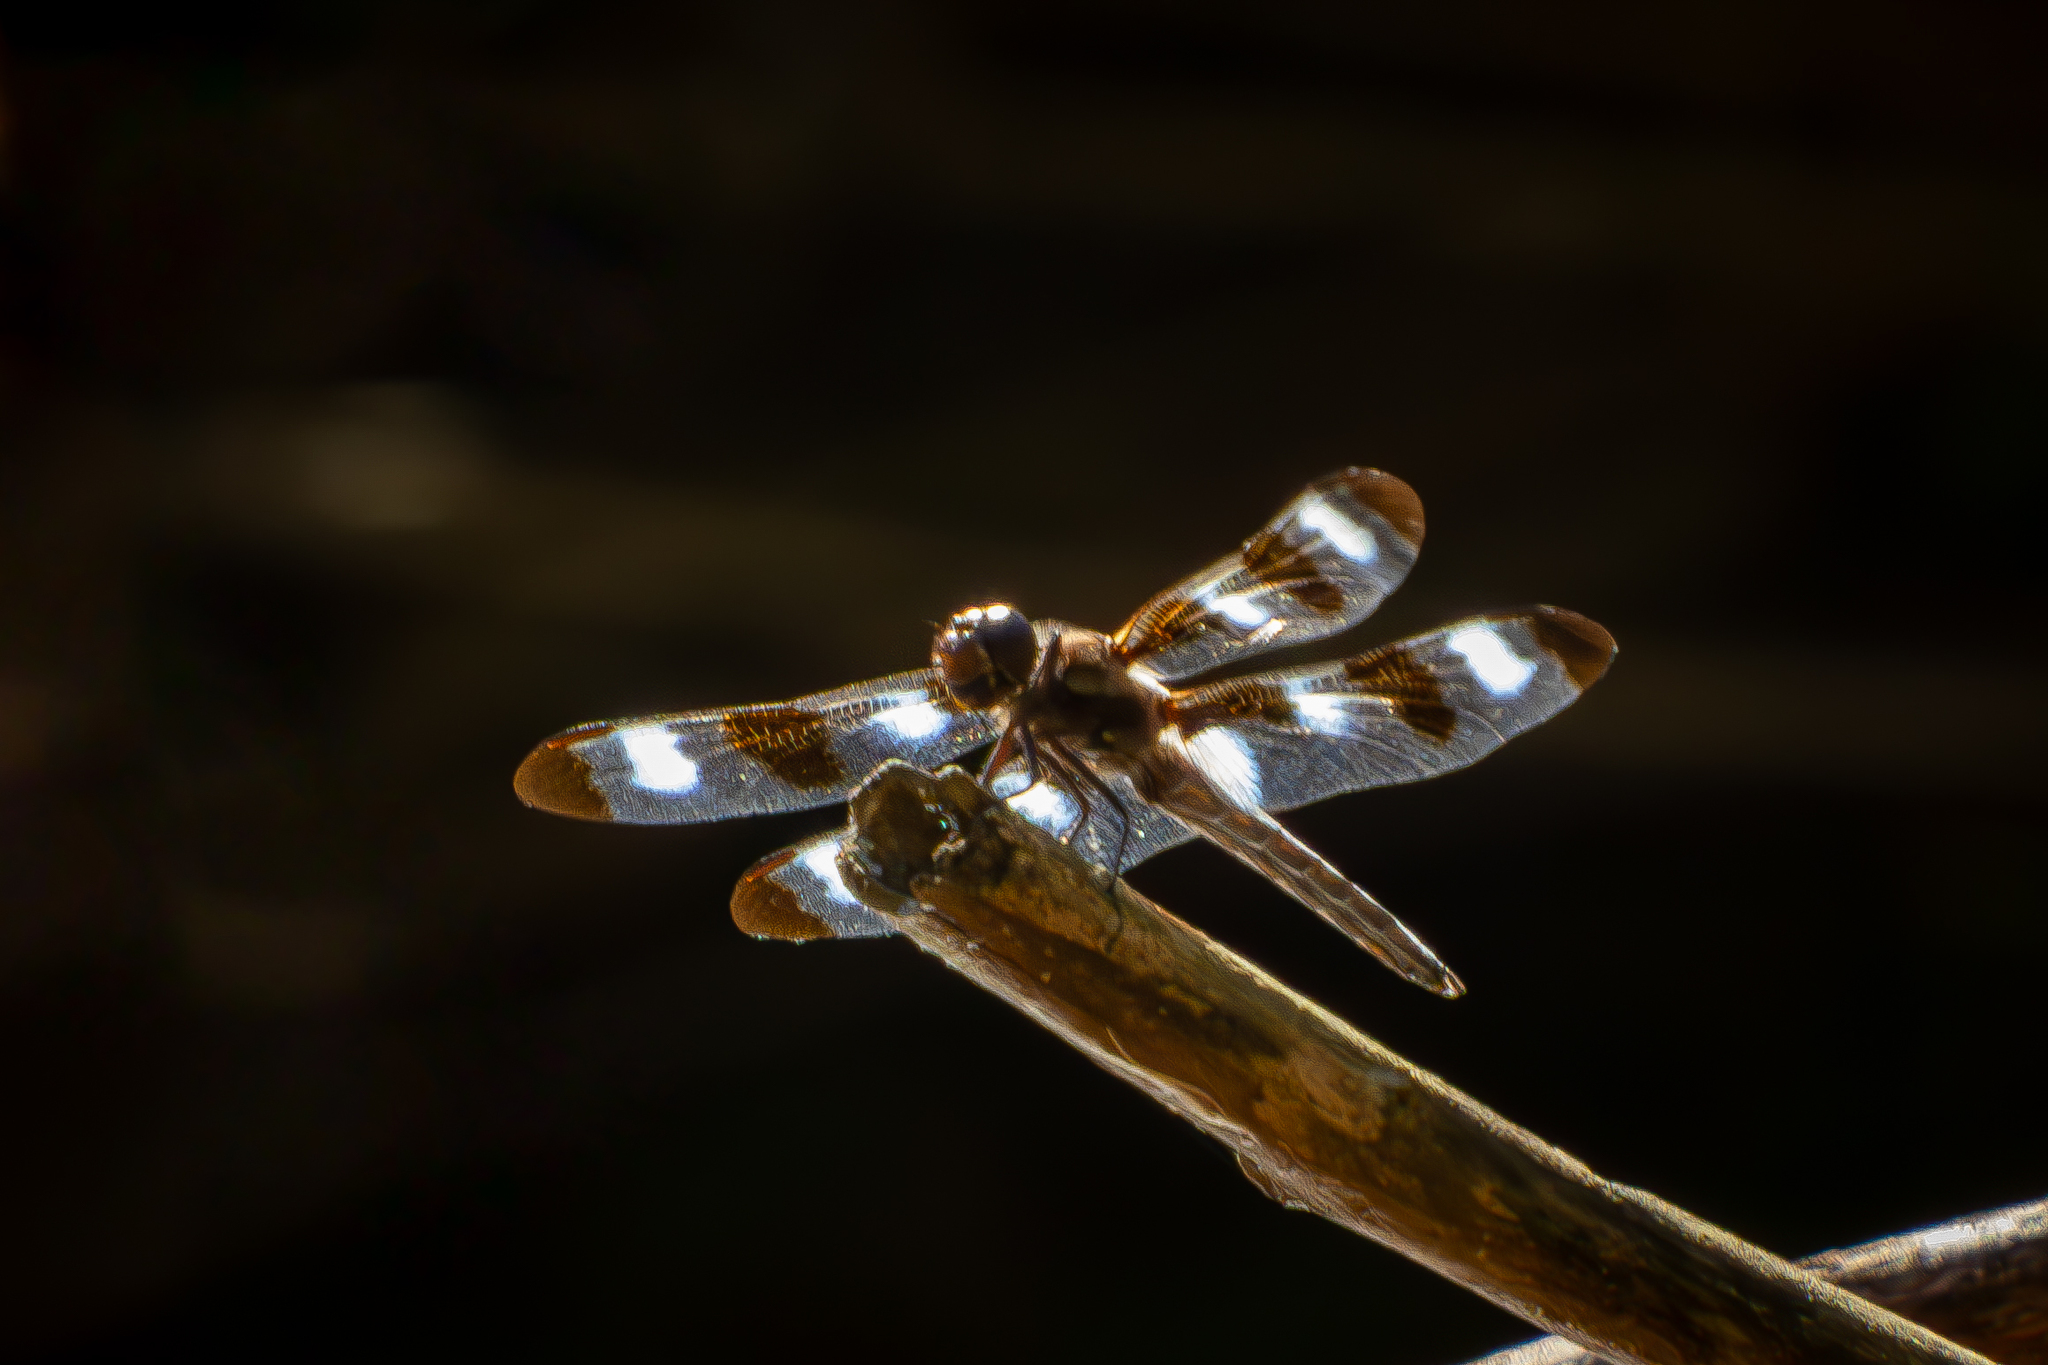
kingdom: Animalia
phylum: Arthropoda
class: Insecta
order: Odonata
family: Libellulidae
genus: Libellula
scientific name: Libellula pulchella
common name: Twelve-spotted skimmer
